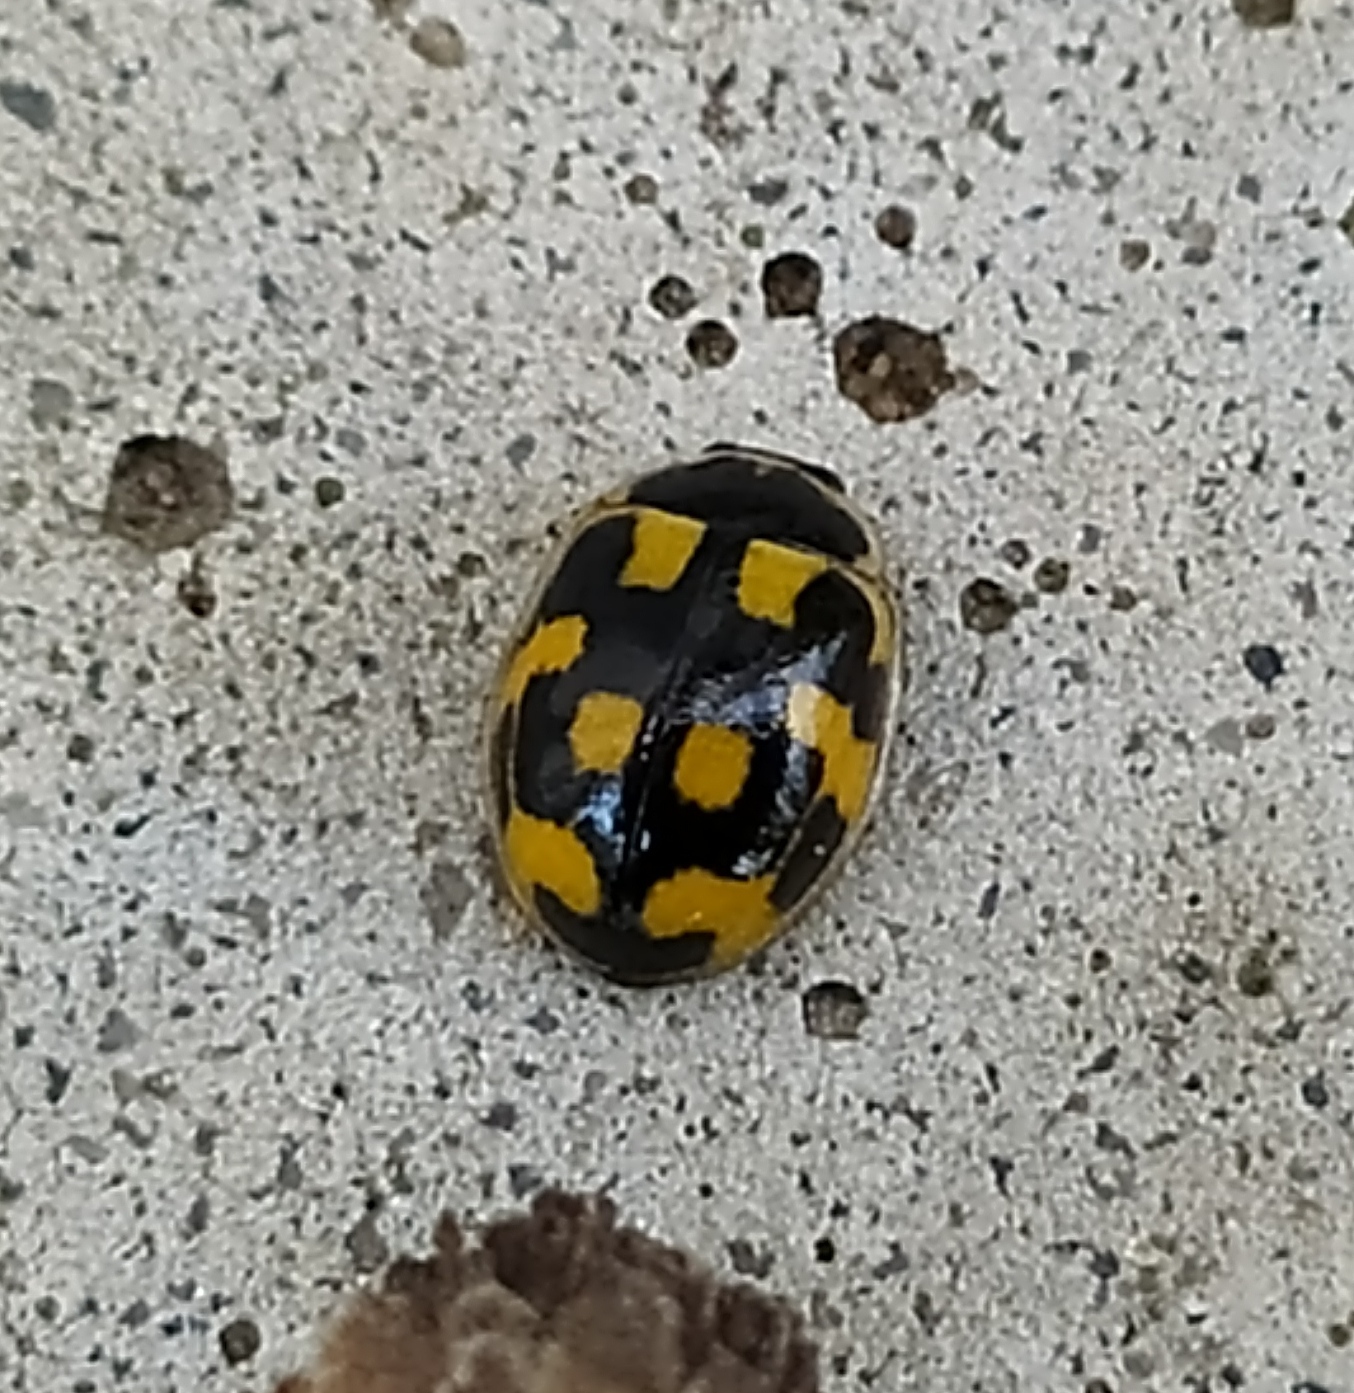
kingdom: Animalia
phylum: Arthropoda
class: Insecta
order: Coleoptera
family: Coccinellidae
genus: Propylaea
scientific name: Propylaea quatuordecimpunctata
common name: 14-spotted ladybird beetle
